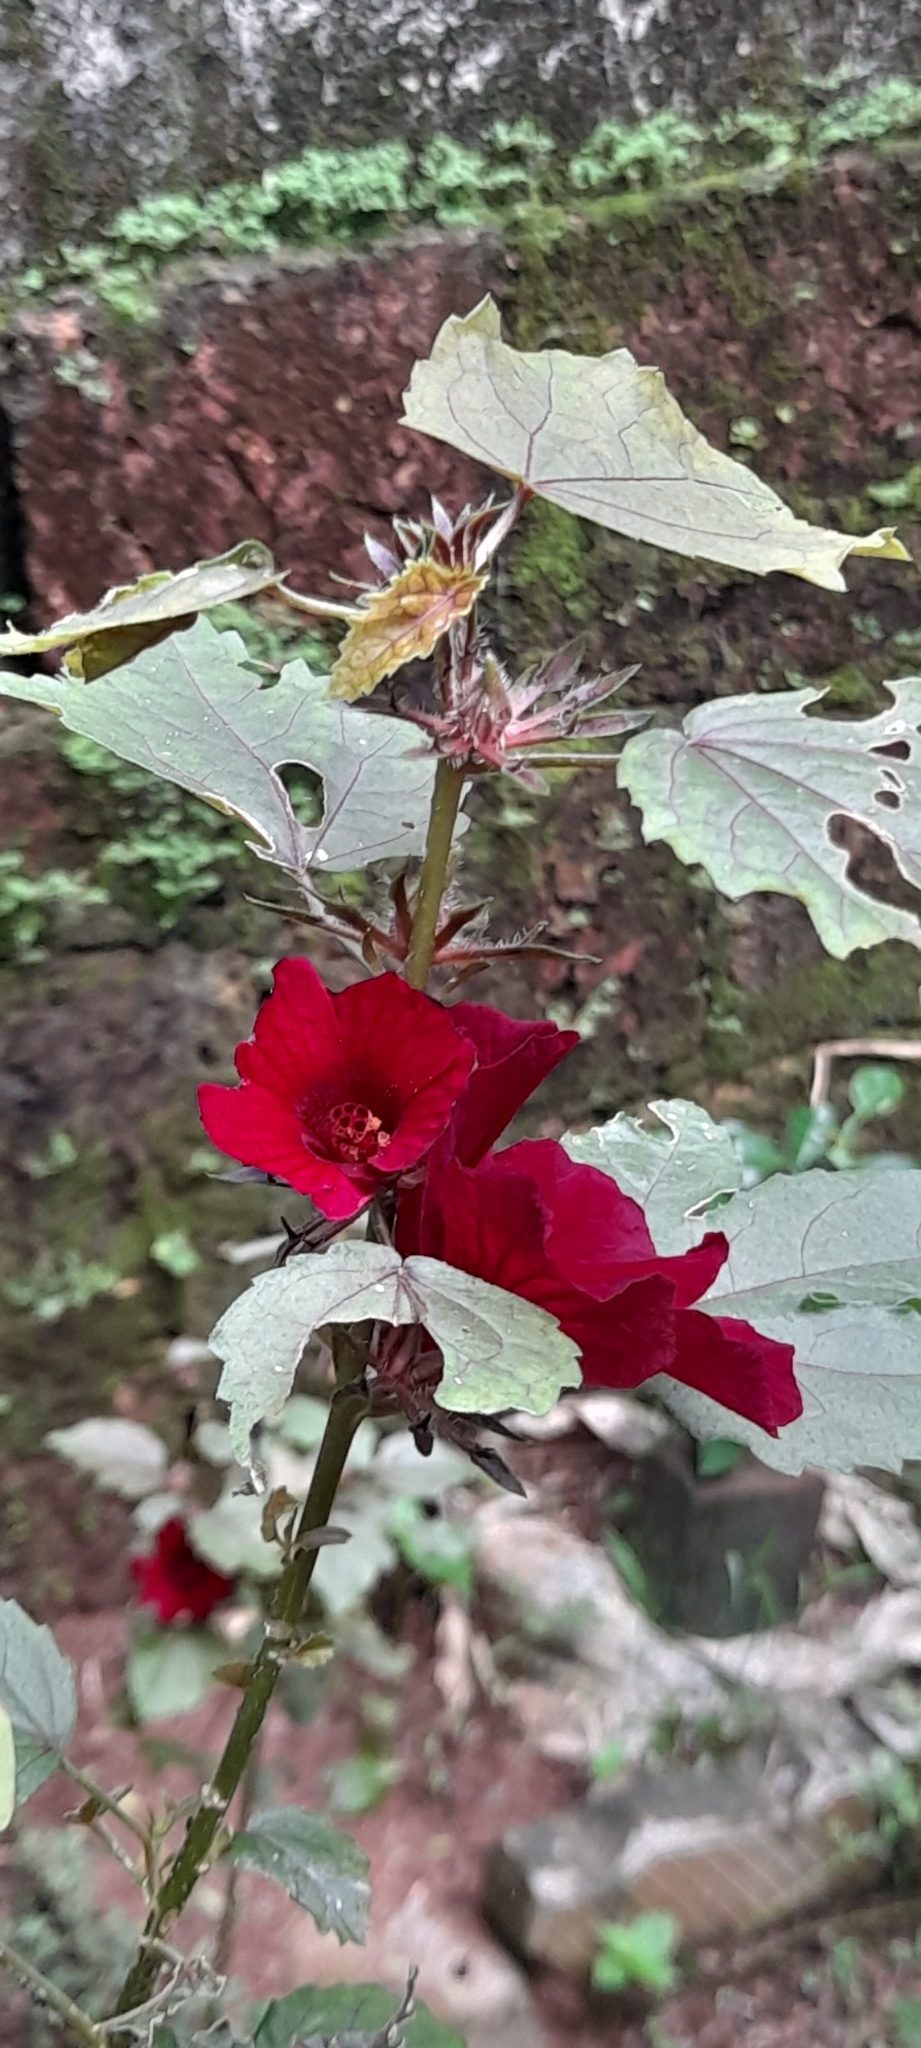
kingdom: Plantae
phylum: Tracheophyta
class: Magnoliopsida
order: Malvales
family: Malvaceae
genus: Hibiscus
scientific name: Hibiscus acetosella
